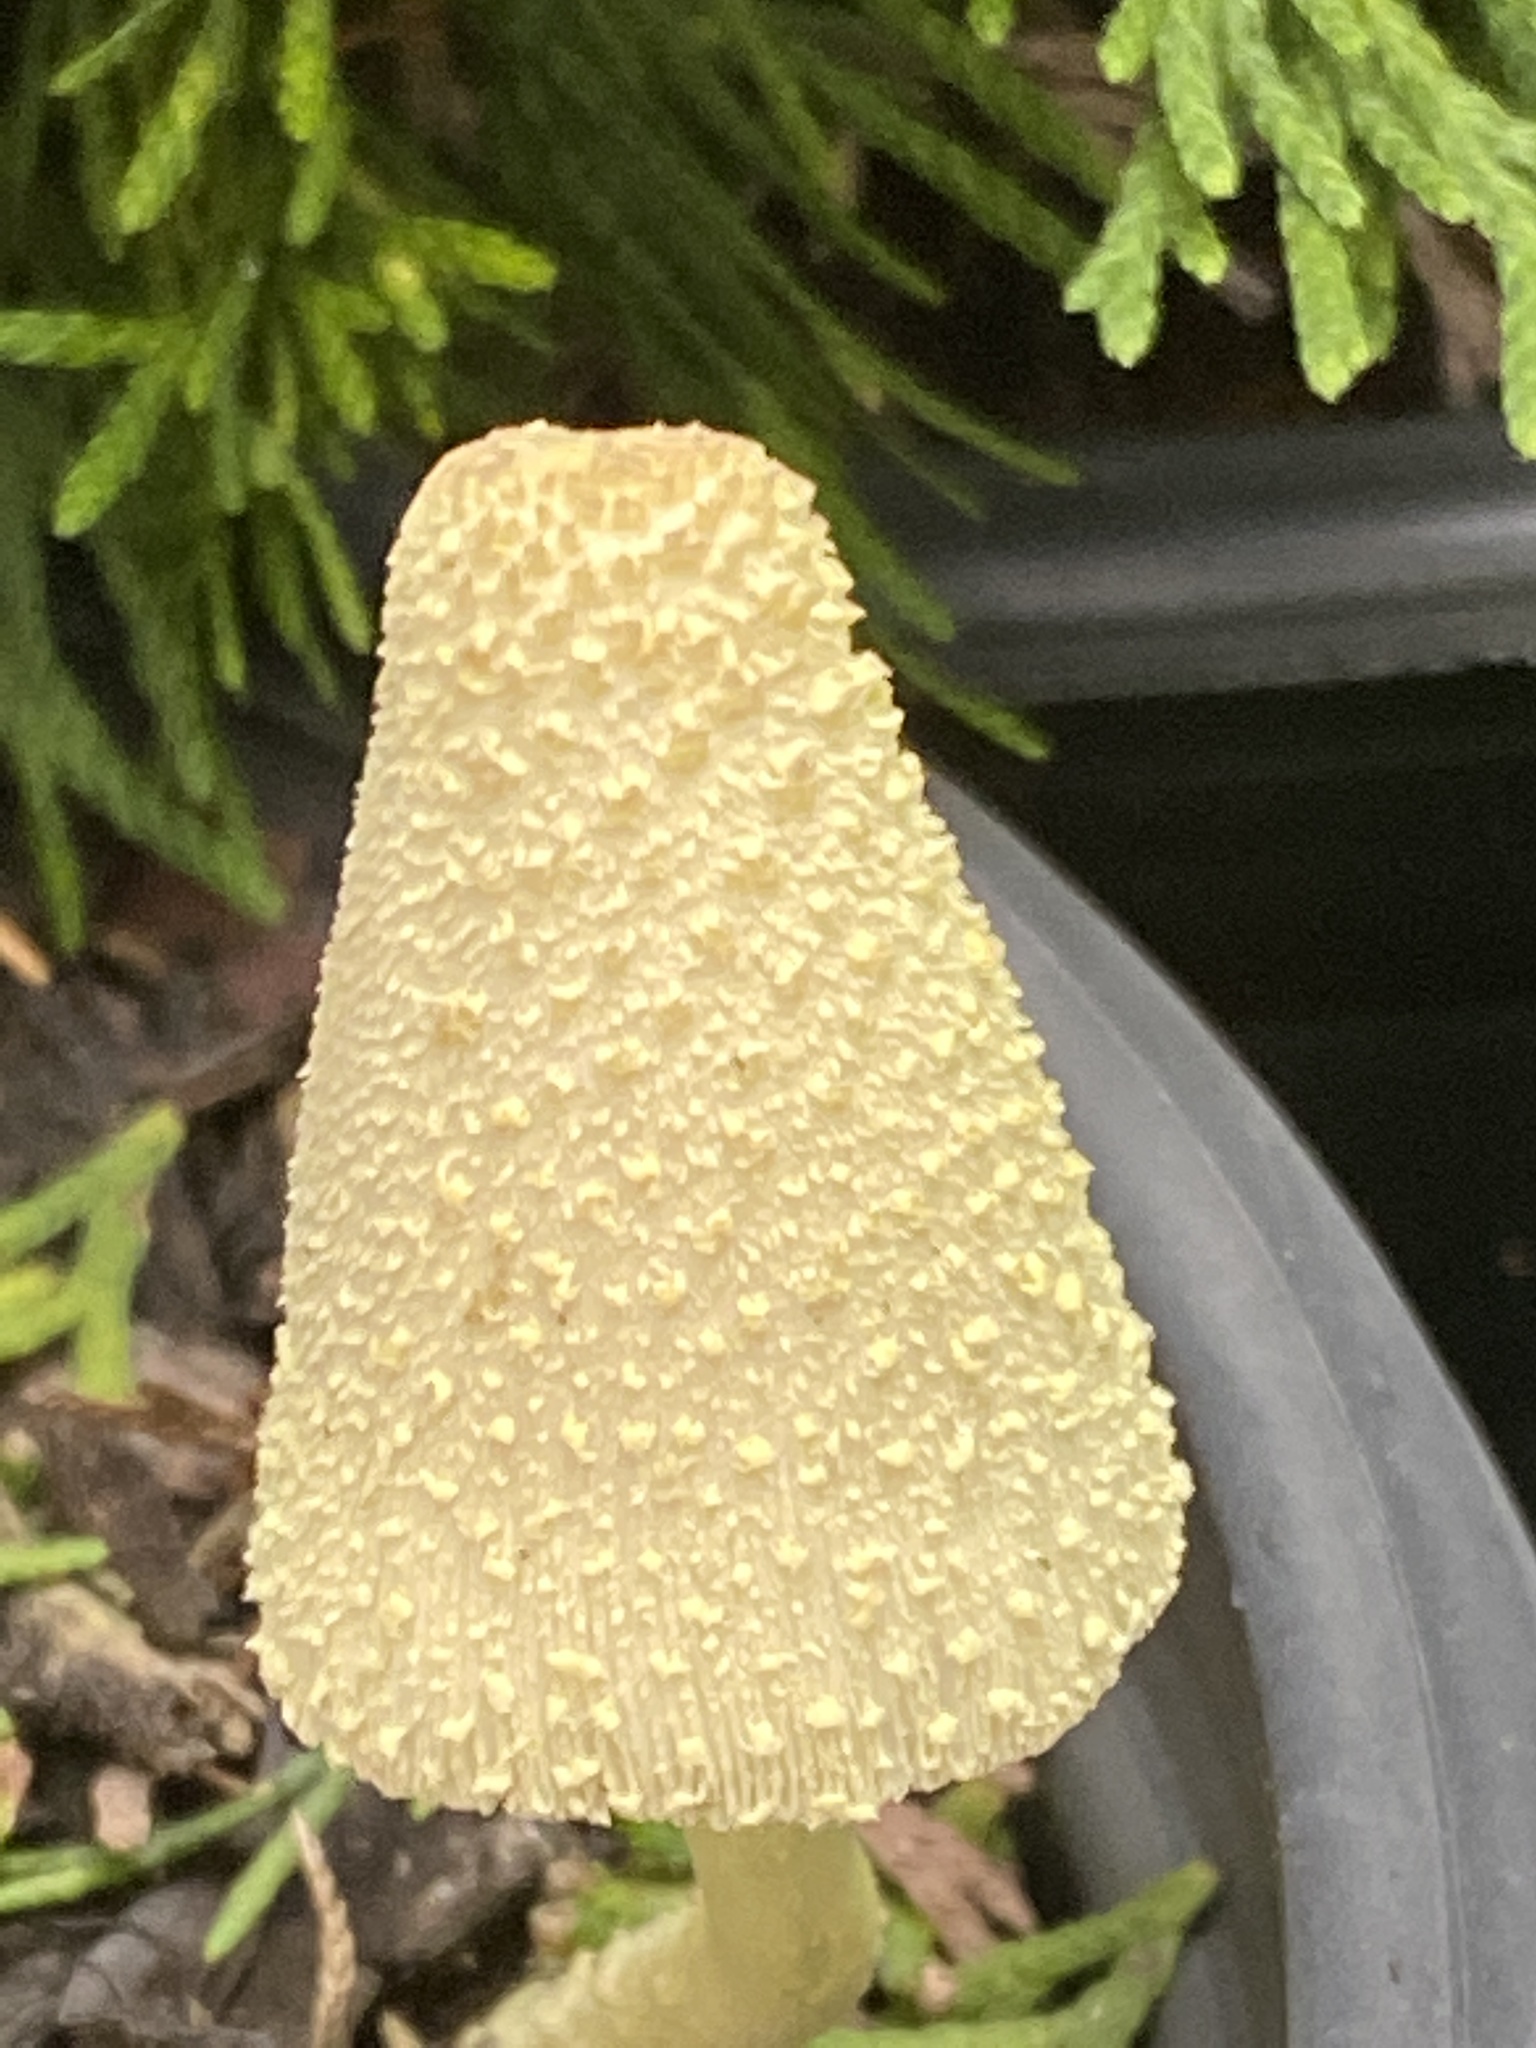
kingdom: Fungi
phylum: Basidiomycota
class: Agaricomycetes
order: Agaricales
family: Agaricaceae
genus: Leucocoprinus
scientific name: Leucocoprinus birnbaumii
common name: Plantpot dapperling
